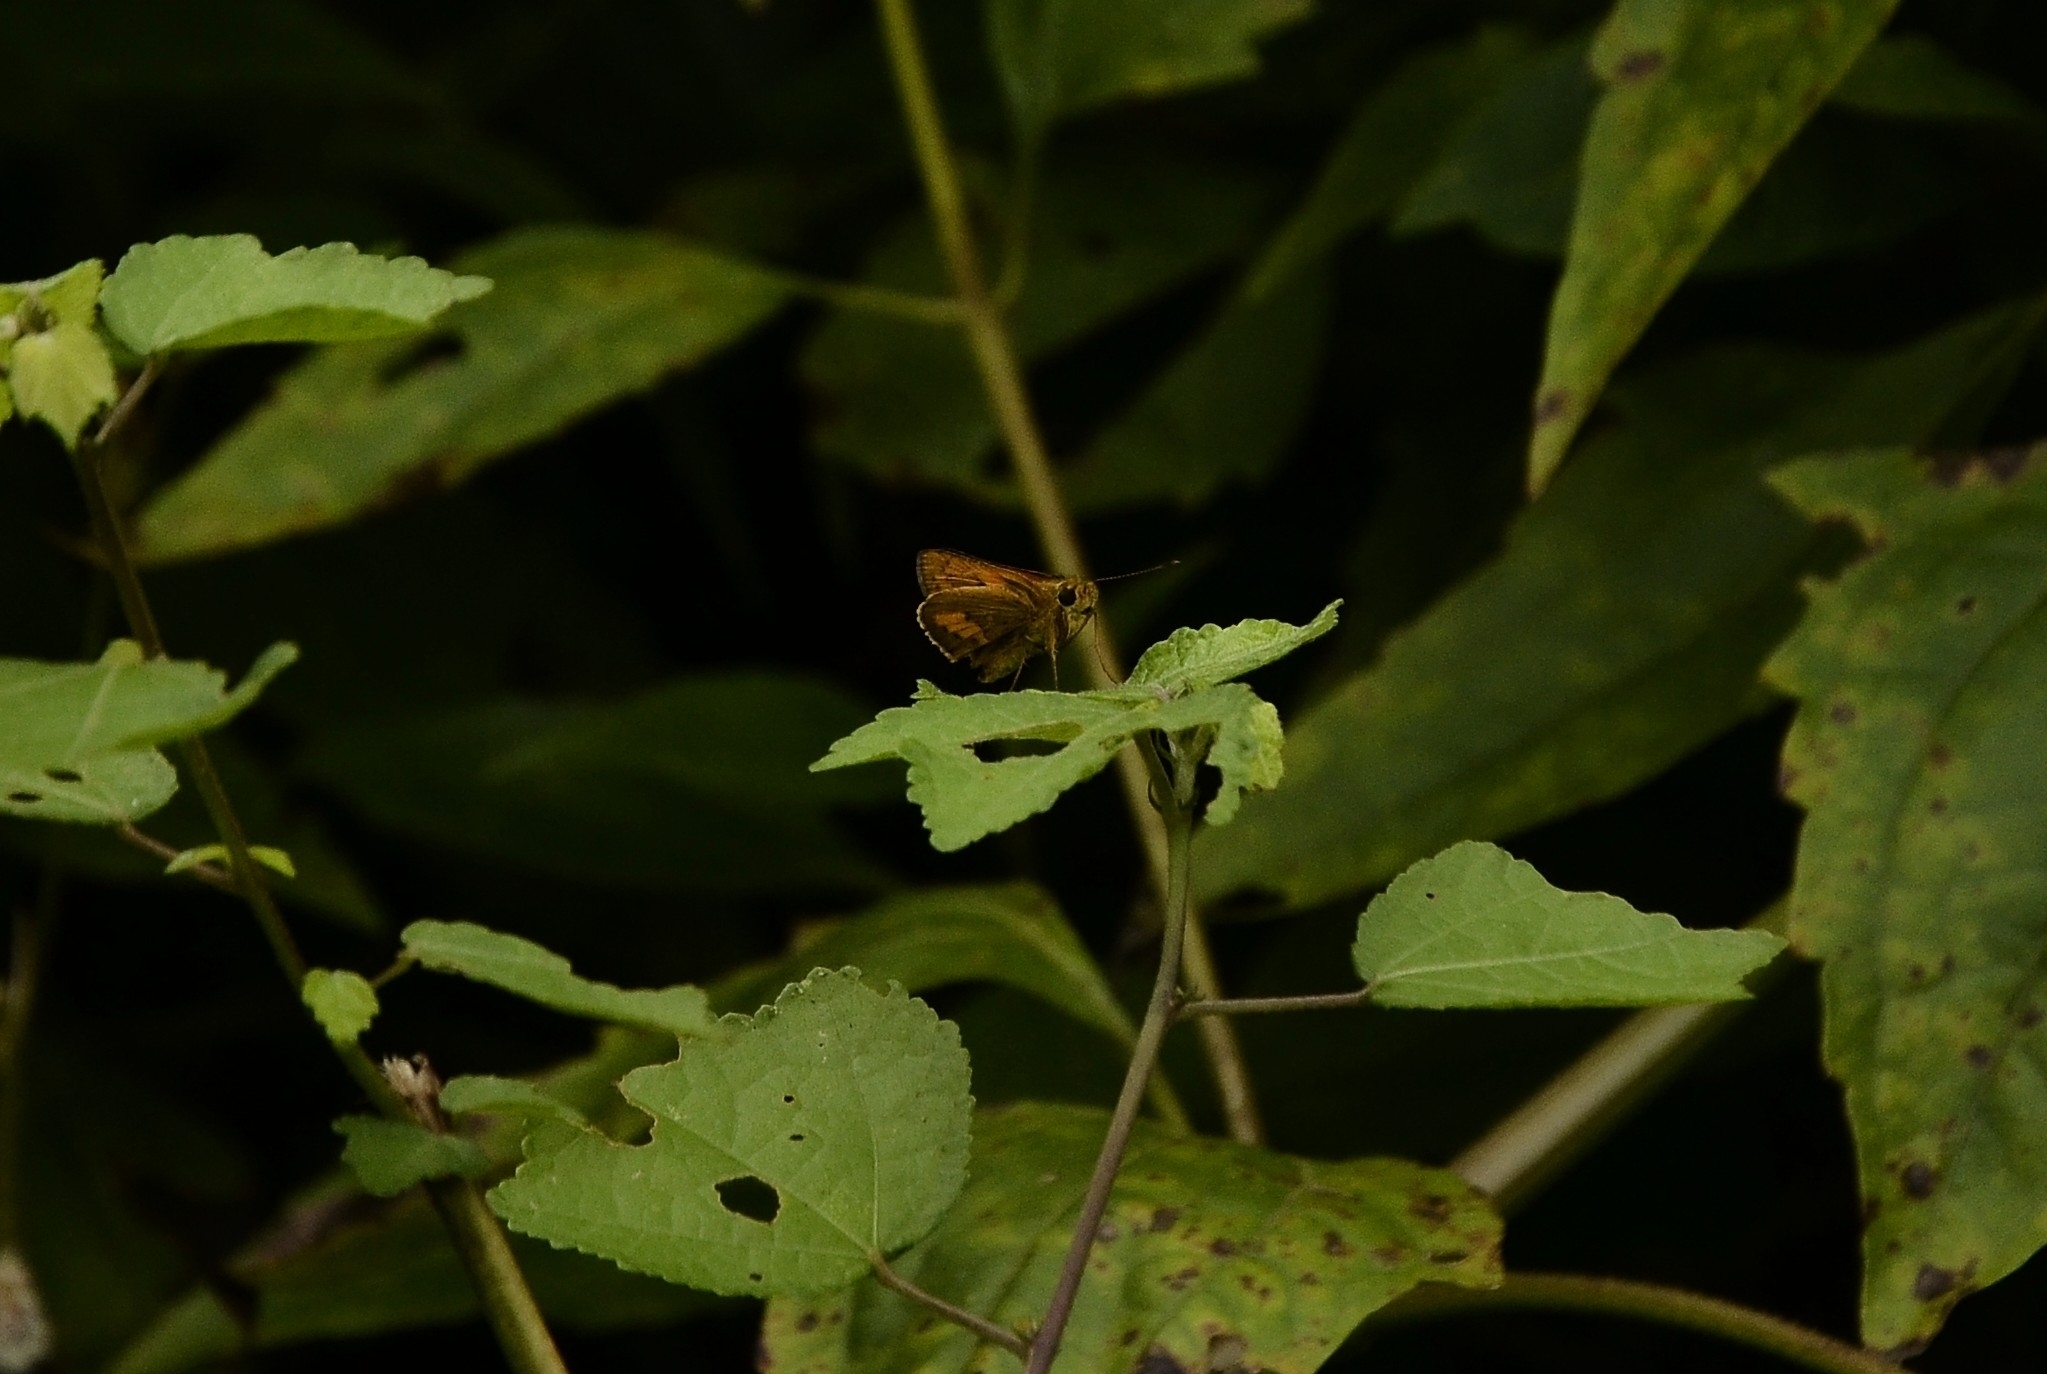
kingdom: Animalia
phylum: Arthropoda
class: Insecta
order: Lepidoptera
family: Hesperiidae
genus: Telicota
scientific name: Telicota bambusae
